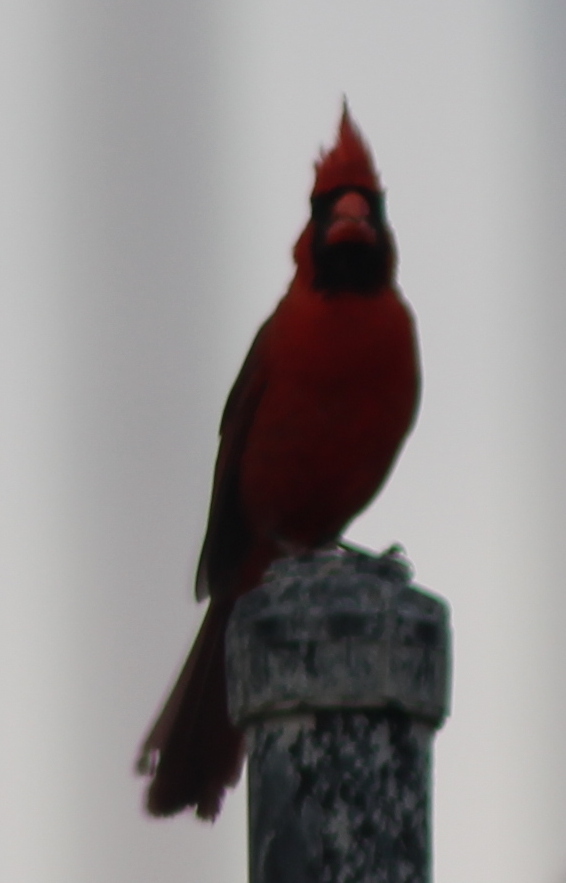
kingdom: Animalia
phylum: Chordata
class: Aves
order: Passeriformes
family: Cardinalidae
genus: Cardinalis
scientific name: Cardinalis cardinalis
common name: Northern cardinal
